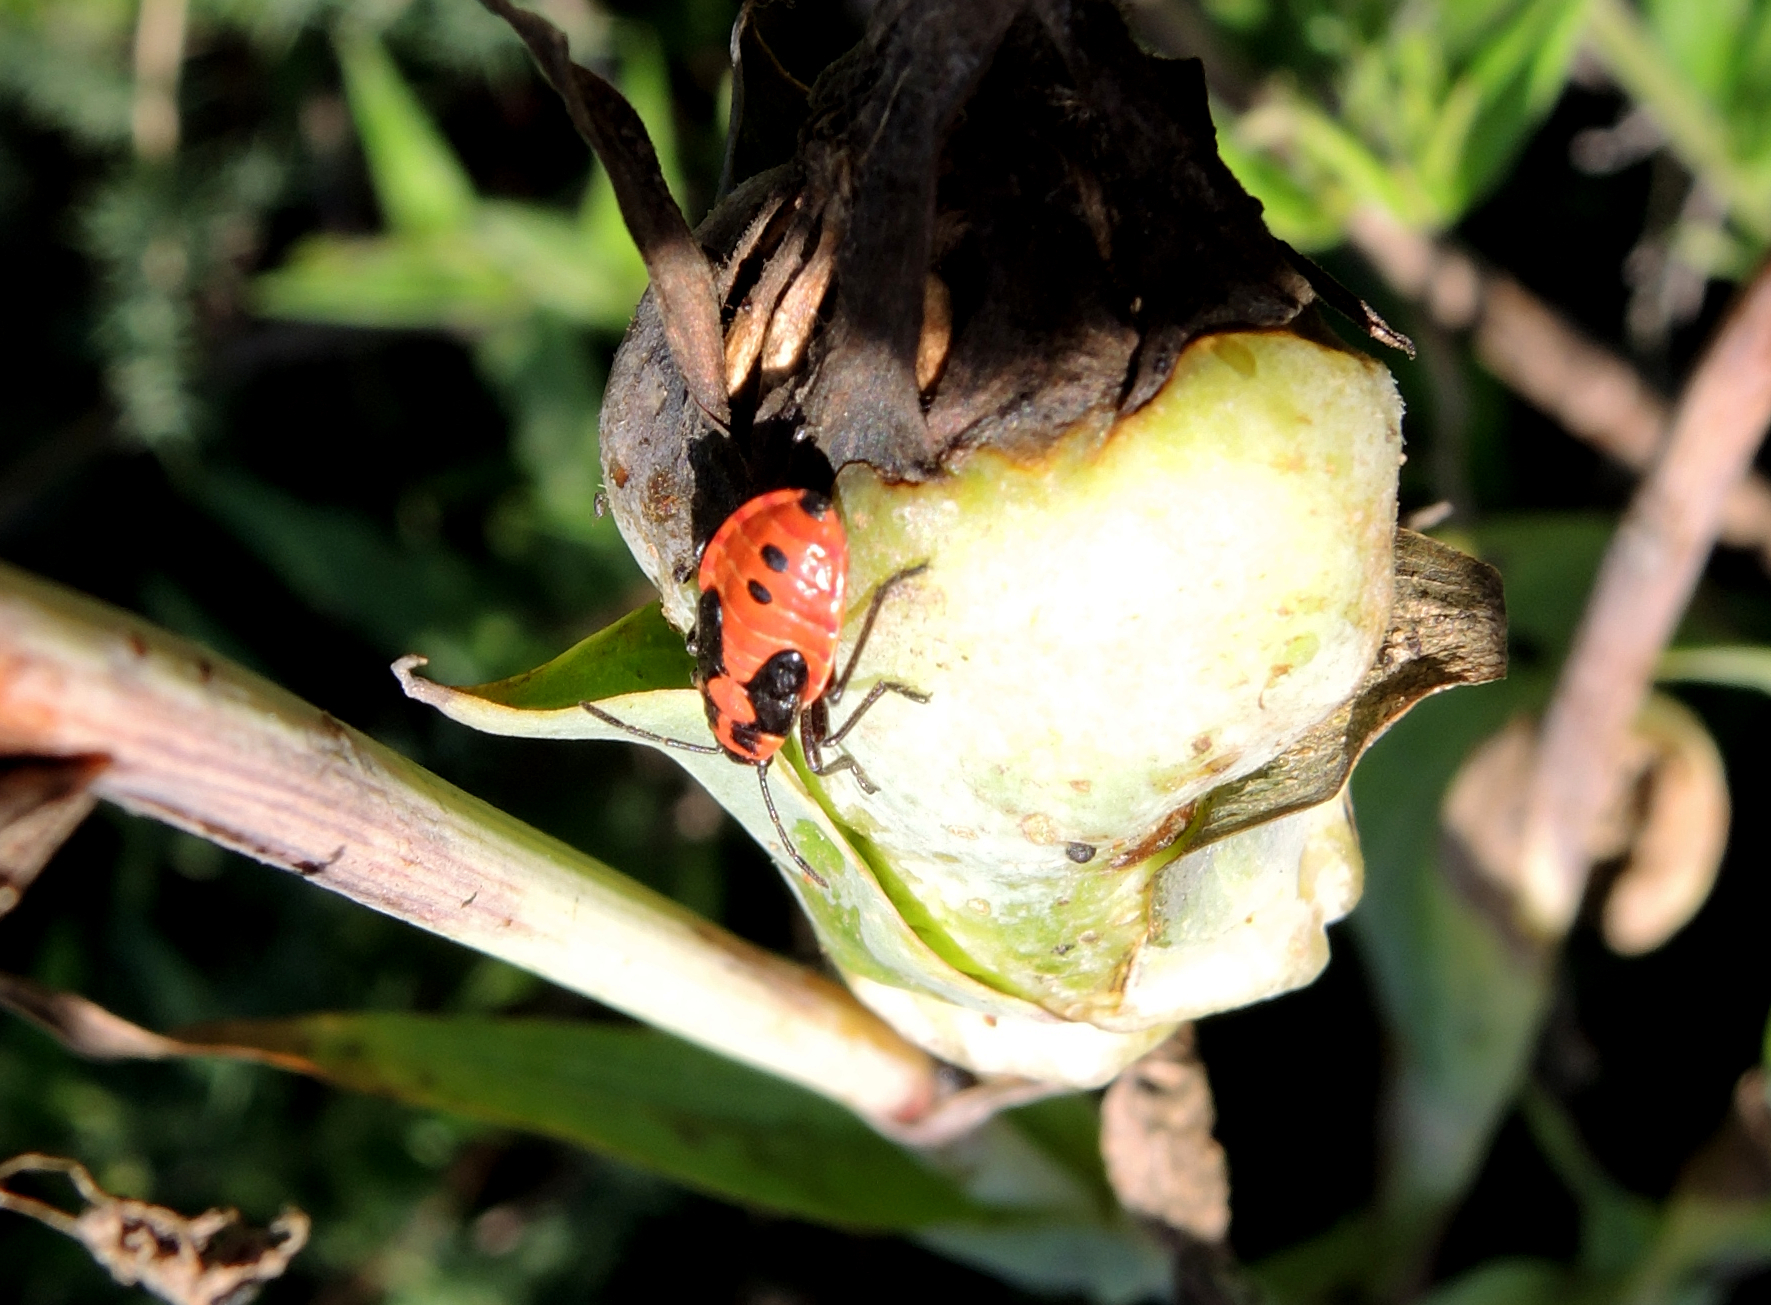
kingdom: Animalia
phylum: Arthropoda
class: Insecta
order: Hemiptera
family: Lygaeidae
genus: Lygaeus
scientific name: Lygaeus equestris
